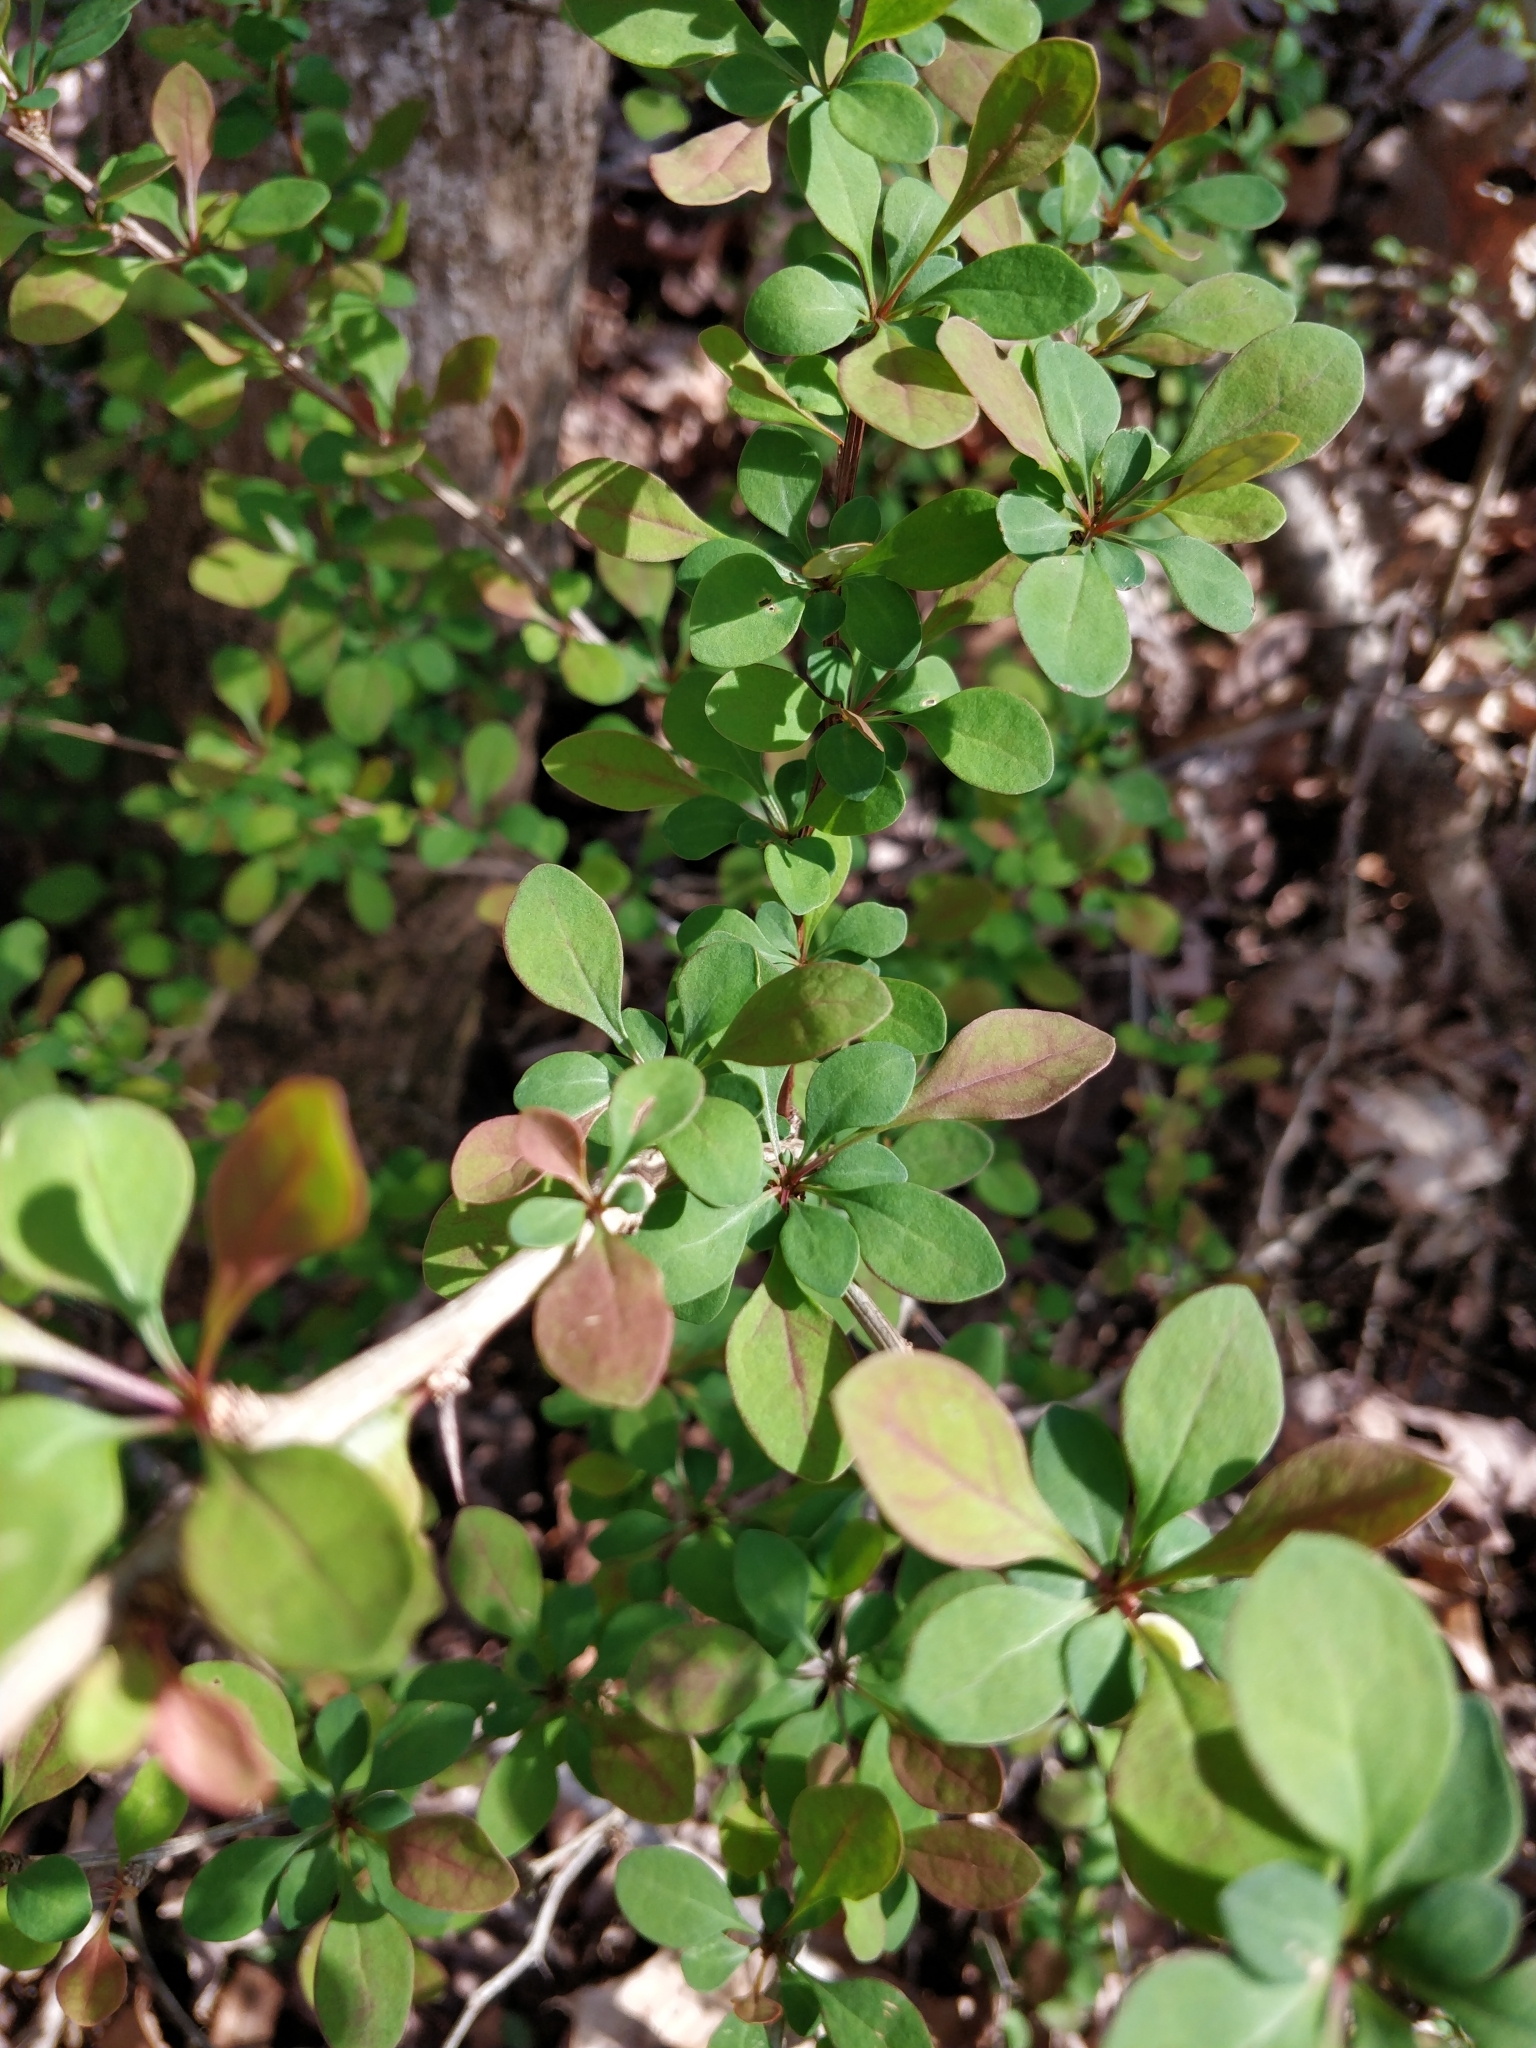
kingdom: Plantae
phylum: Tracheophyta
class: Magnoliopsida
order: Ranunculales
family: Berberidaceae
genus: Berberis
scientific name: Berberis thunbergii
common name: Japanese barberry
